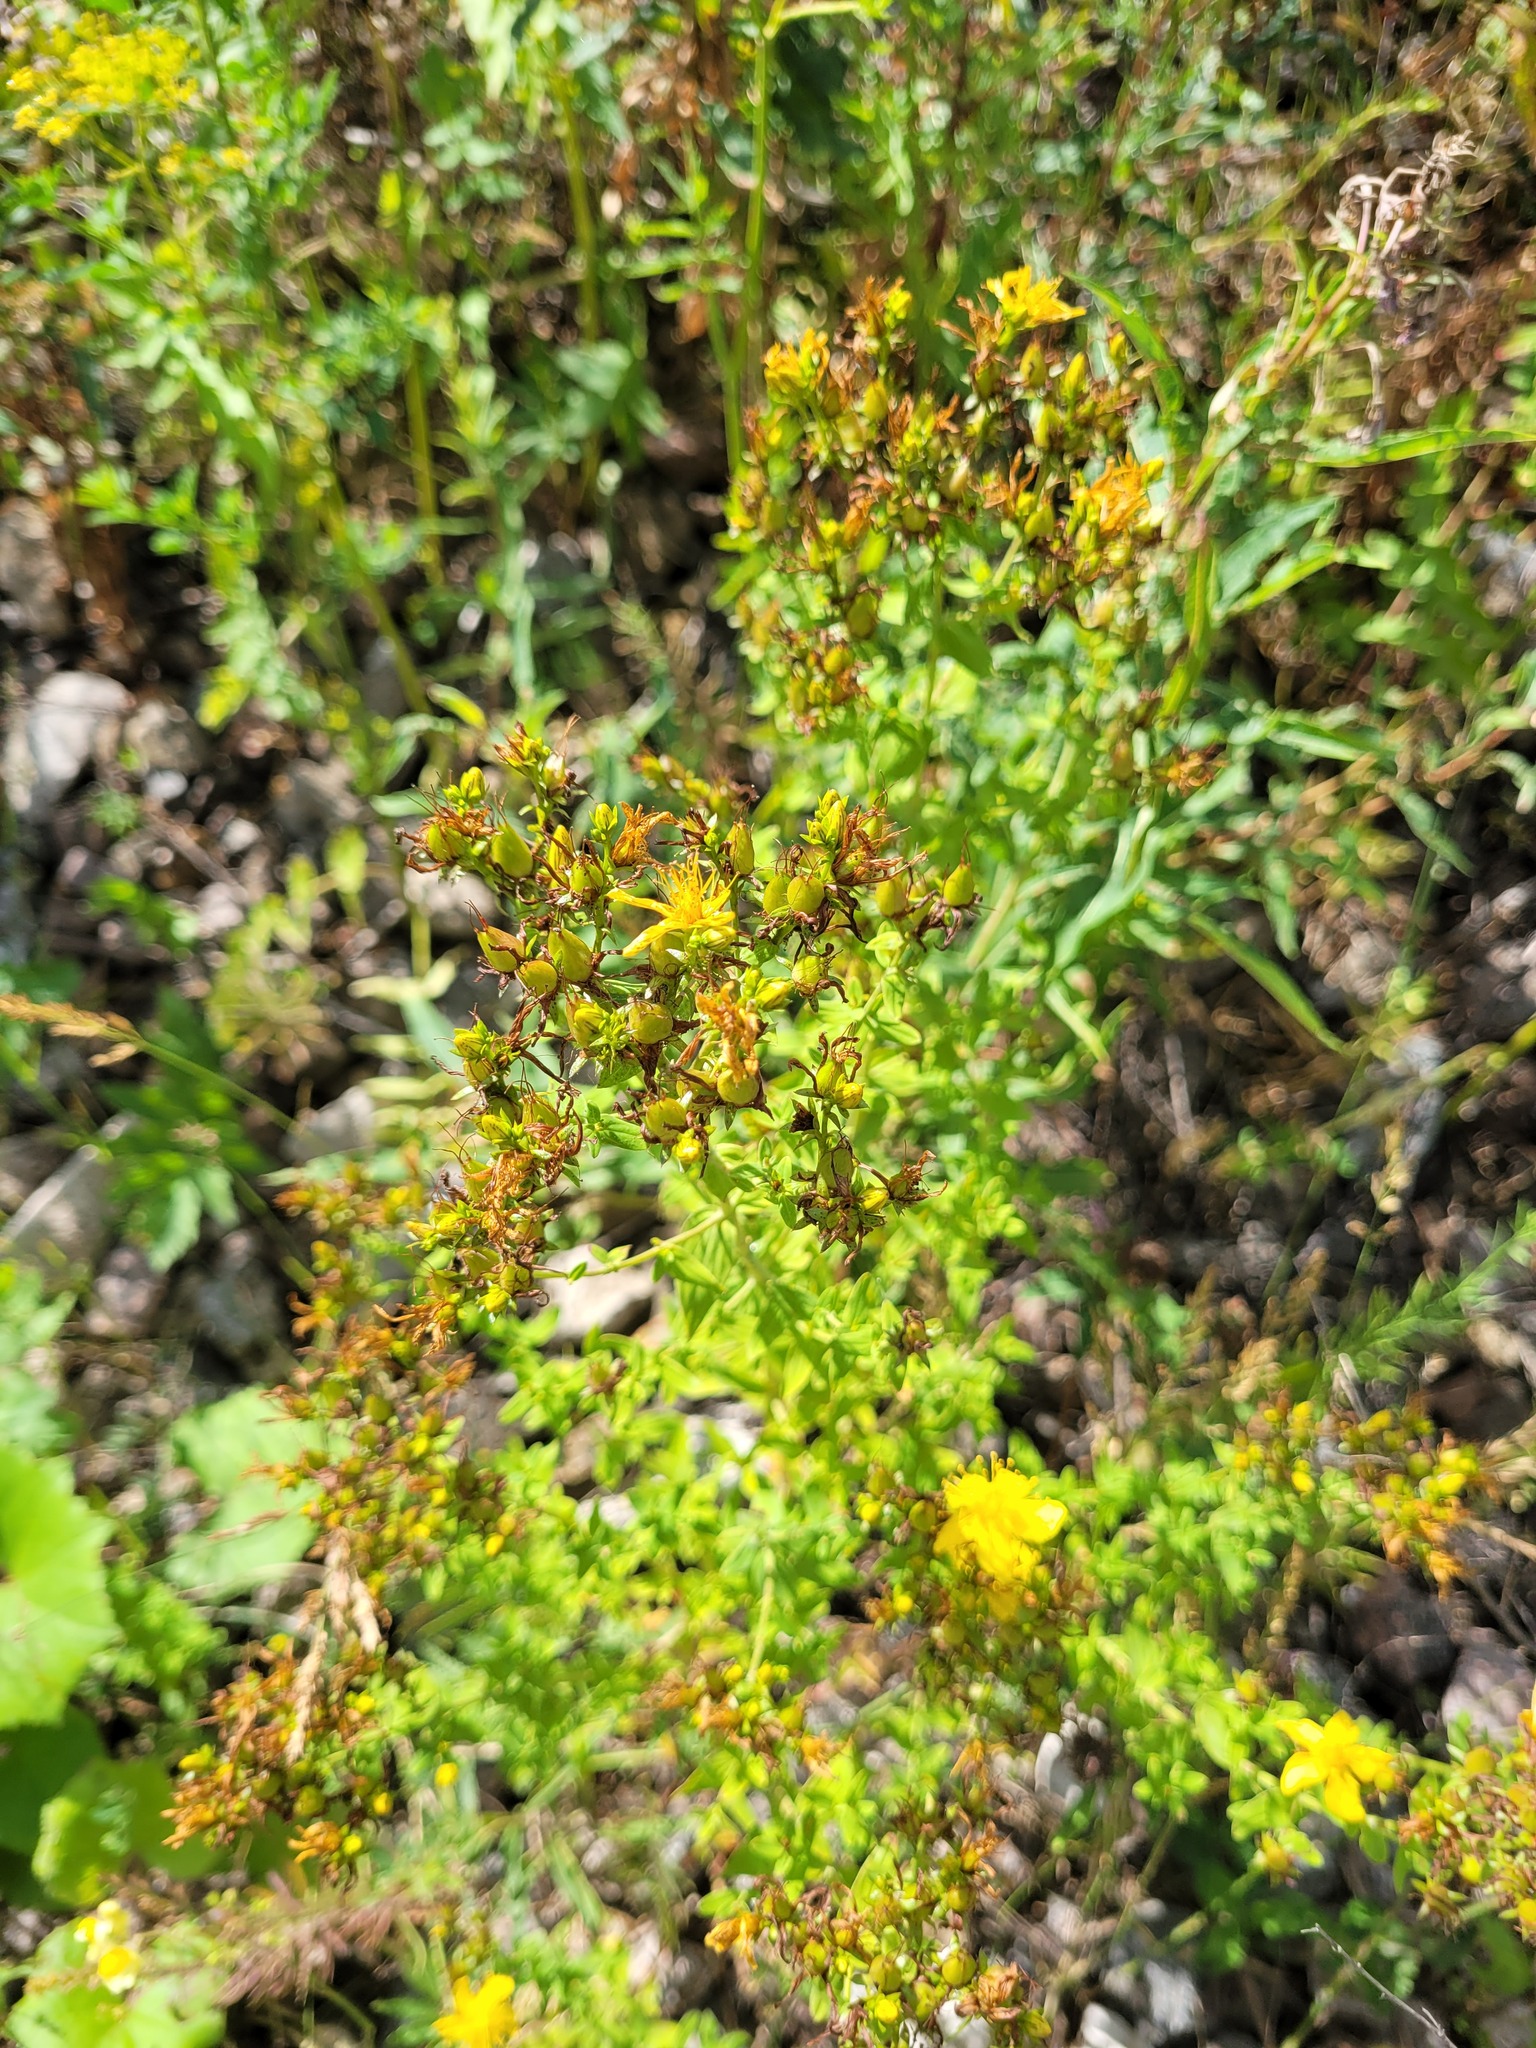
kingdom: Plantae
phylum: Tracheophyta
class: Magnoliopsida
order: Malpighiales
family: Hypericaceae
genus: Hypericum
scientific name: Hypericum perforatum
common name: Common st. johnswort
